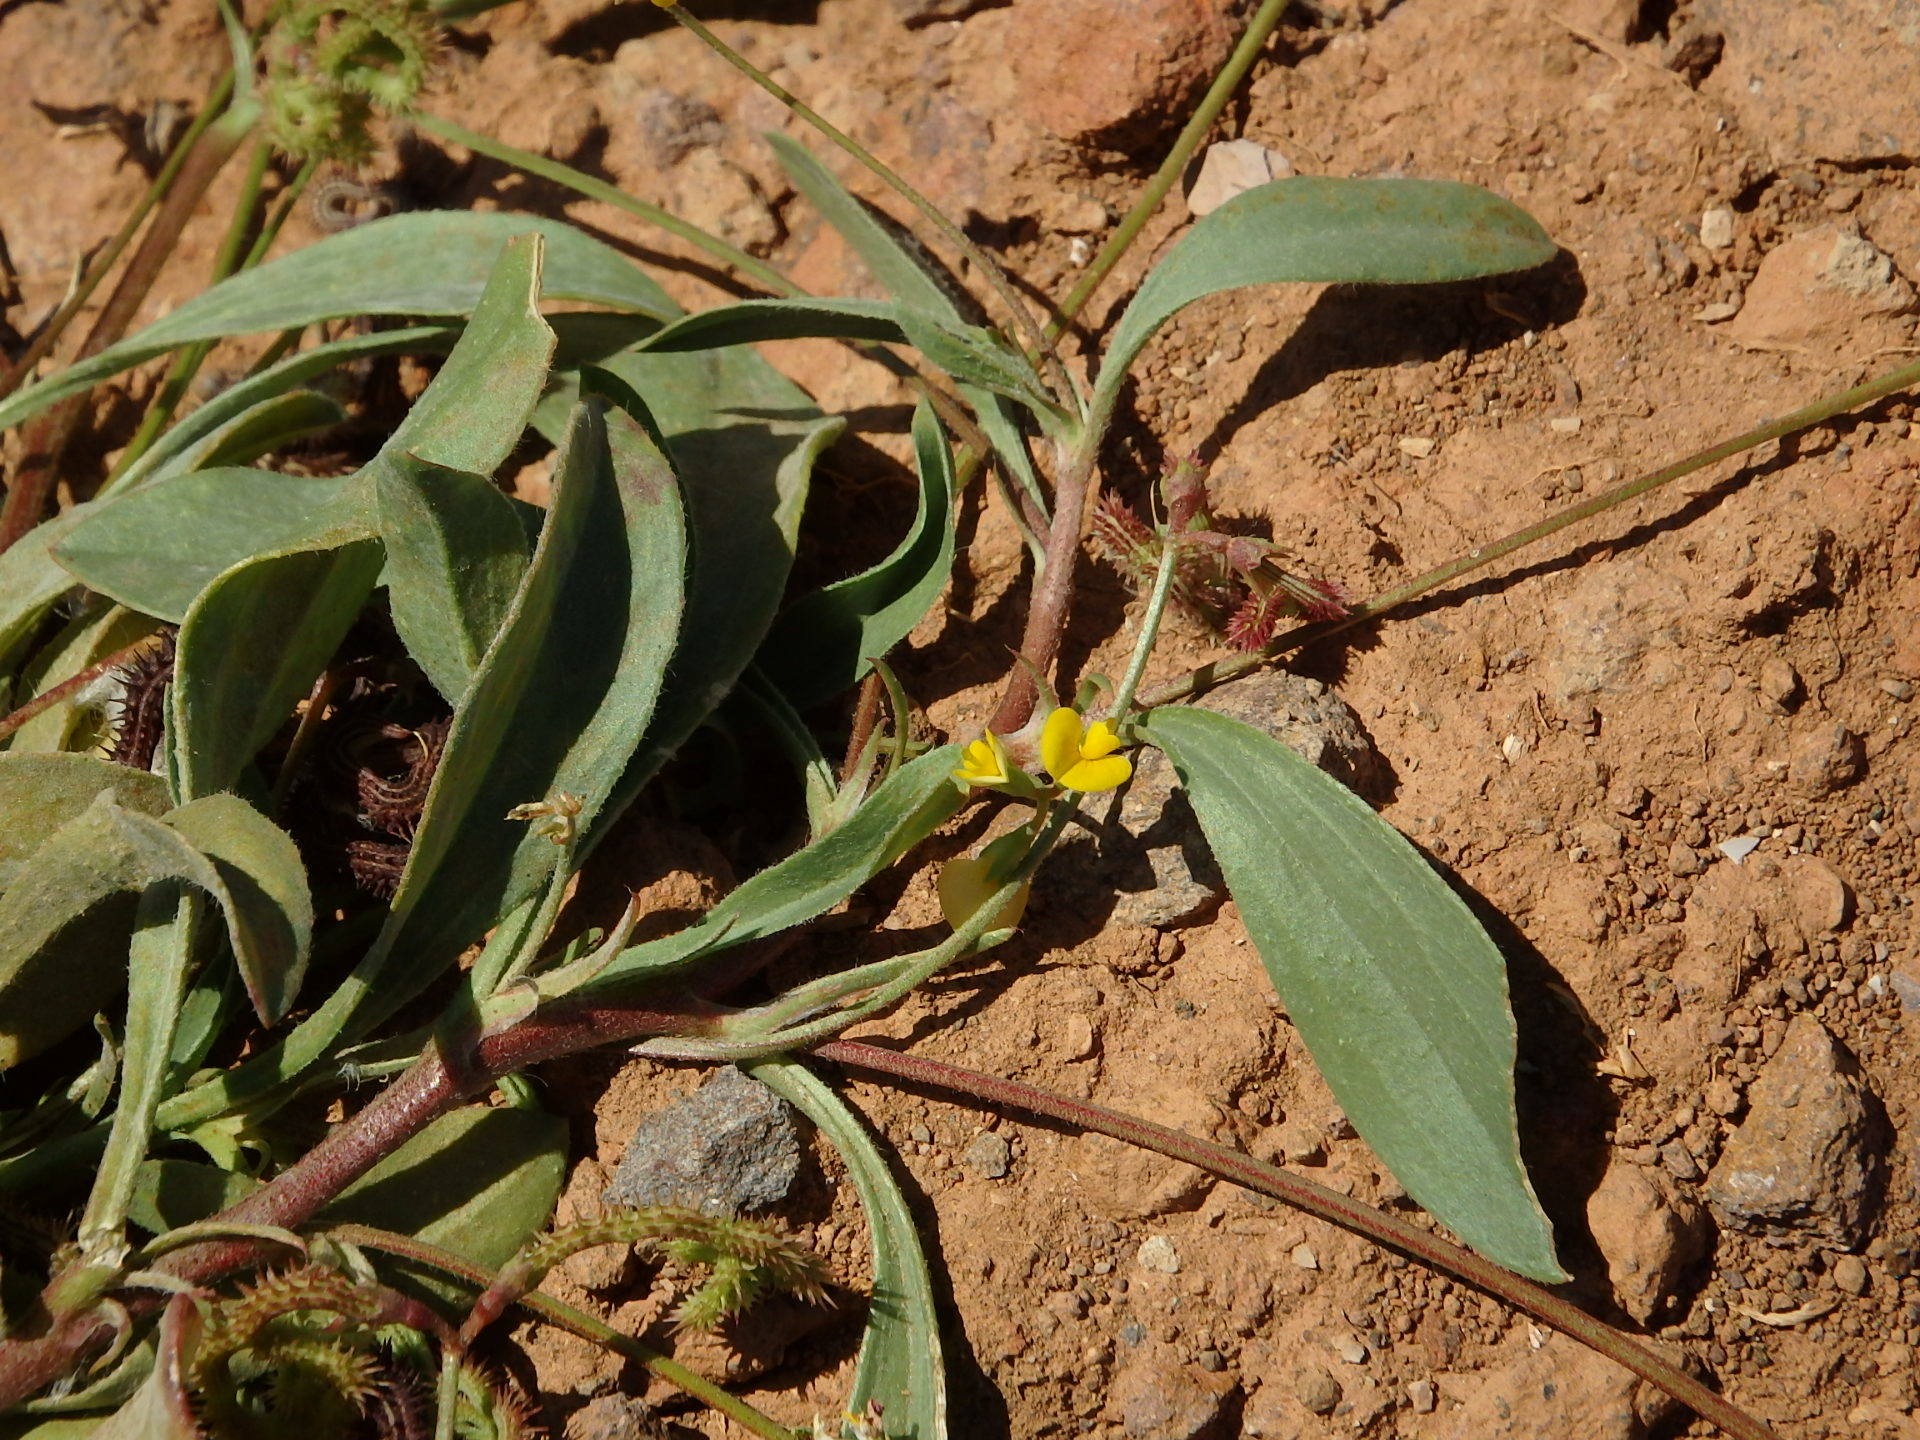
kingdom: Plantae
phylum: Tracheophyta
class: Magnoliopsida
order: Fabales
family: Fabaceae
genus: Scorpiurus
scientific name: Scorpiurus muricatus
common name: Caterpillar-plant
